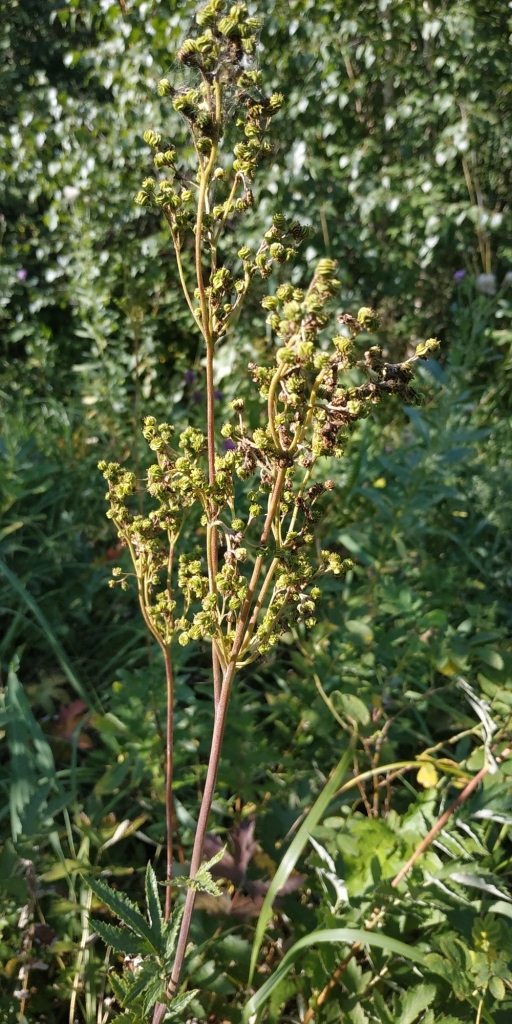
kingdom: Plantae
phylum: Tracheophyta
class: Magnoliopsida
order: Rosales
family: Rosaceae
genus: Filipendula
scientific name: Filipendula ulmaria
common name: Meadowsweet
